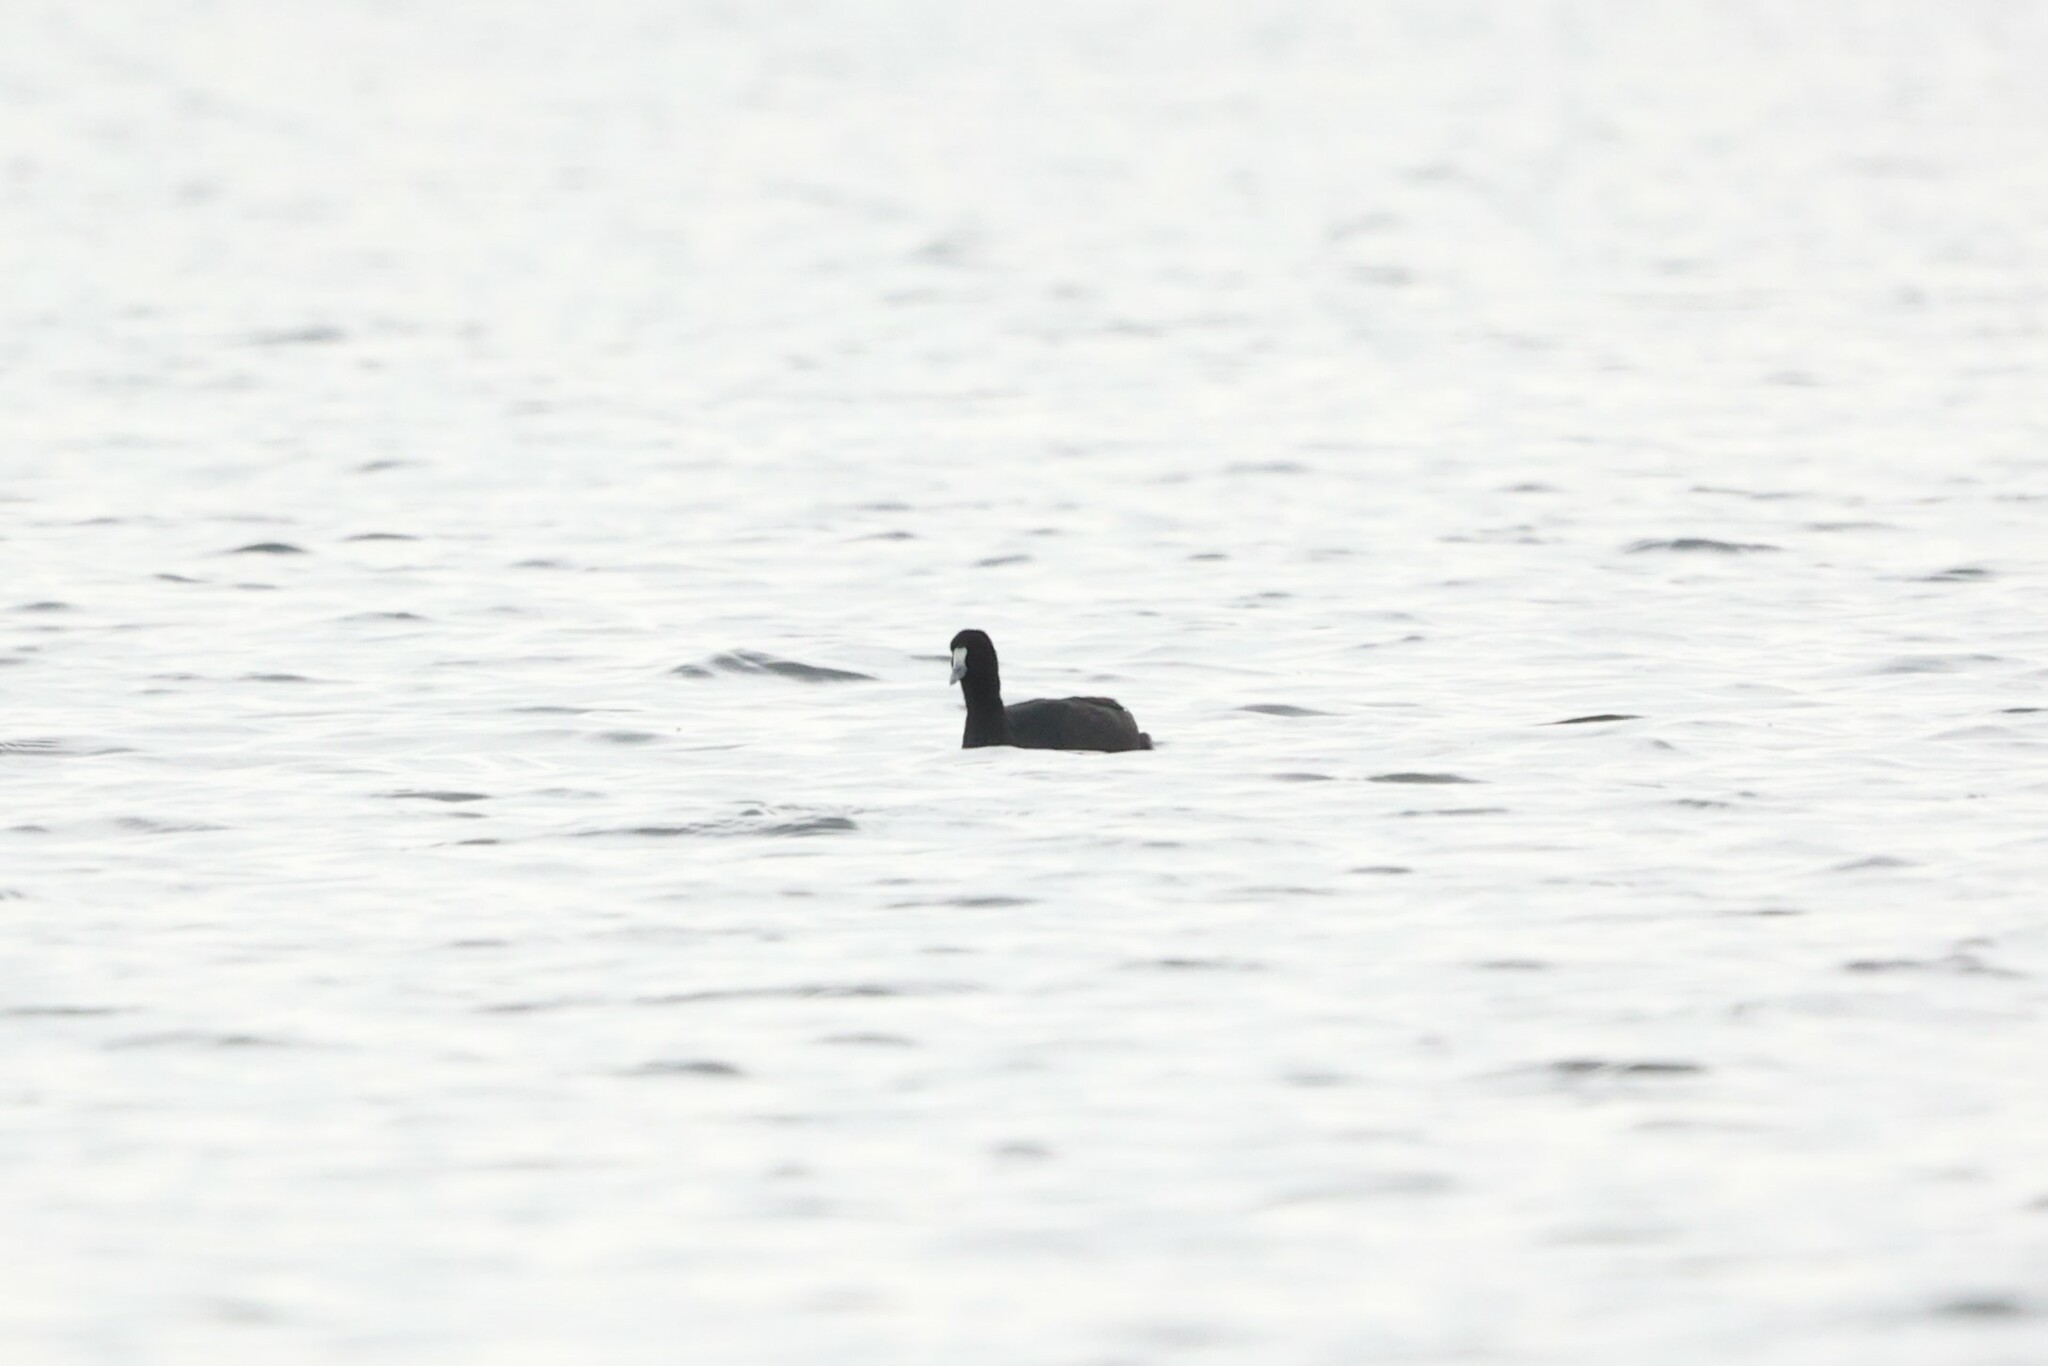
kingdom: Animalia
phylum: Chordata
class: Aves
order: Gruiformes
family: Rallidae
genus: Fulica
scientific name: Fulica cristata
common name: Red-knobbed coot
